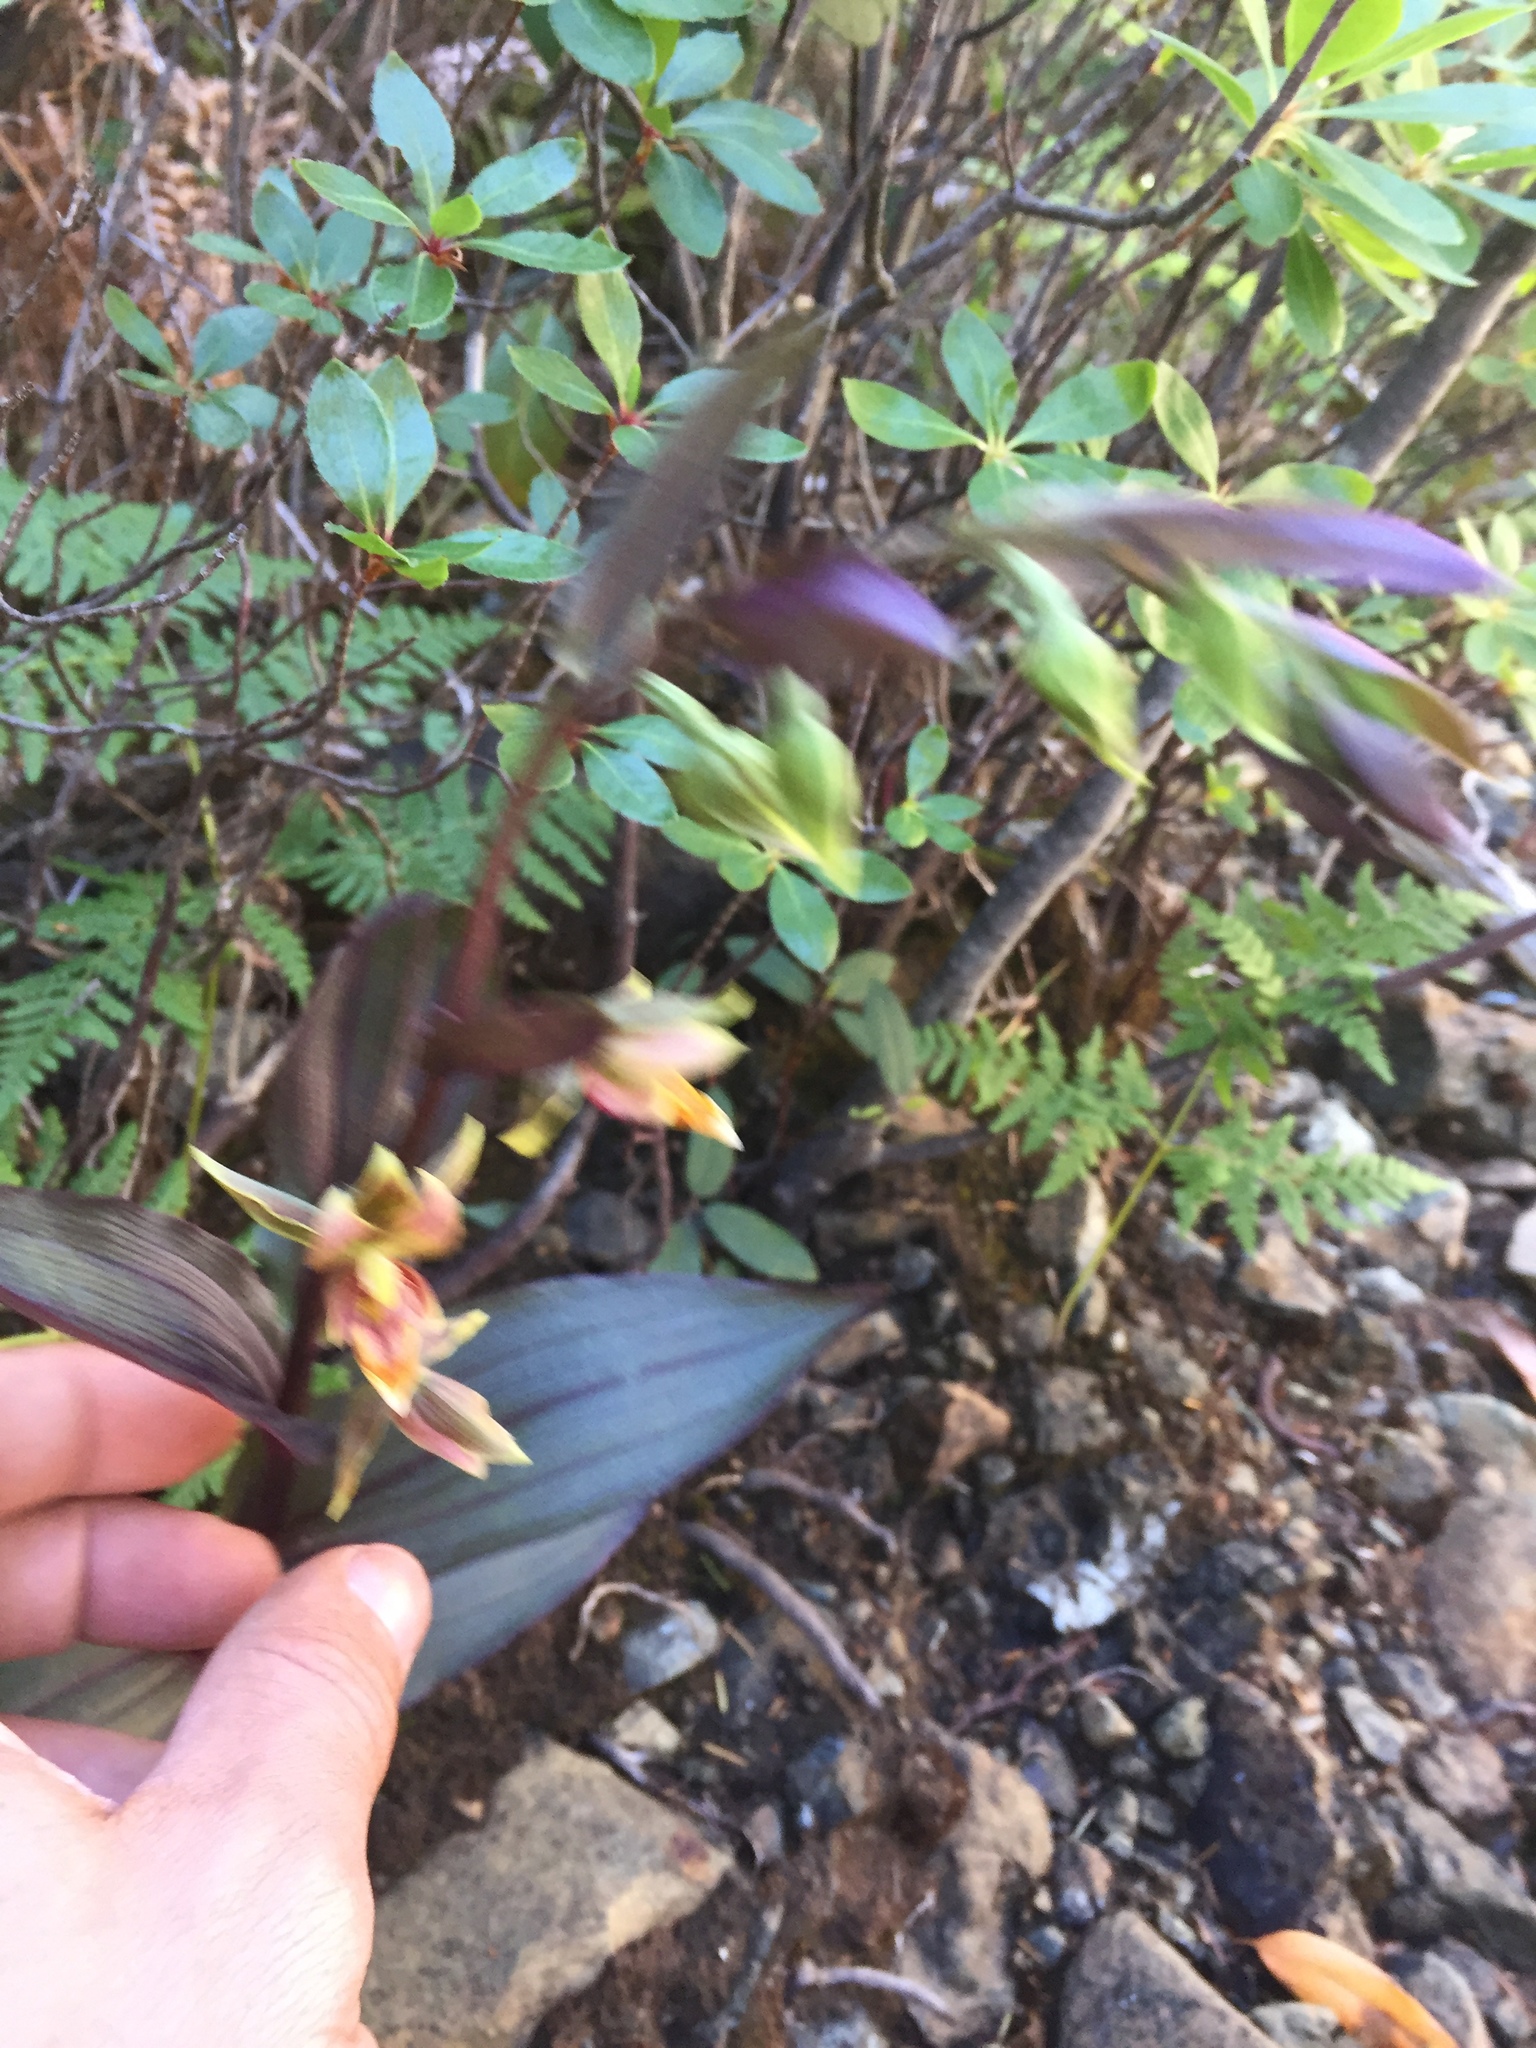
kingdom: Plantae
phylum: Tracheophyta
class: Liliopsida
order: Asparagales
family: Orchidaceae
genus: Epipactis
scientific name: Epipactis gigantea
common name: Chatterbox
